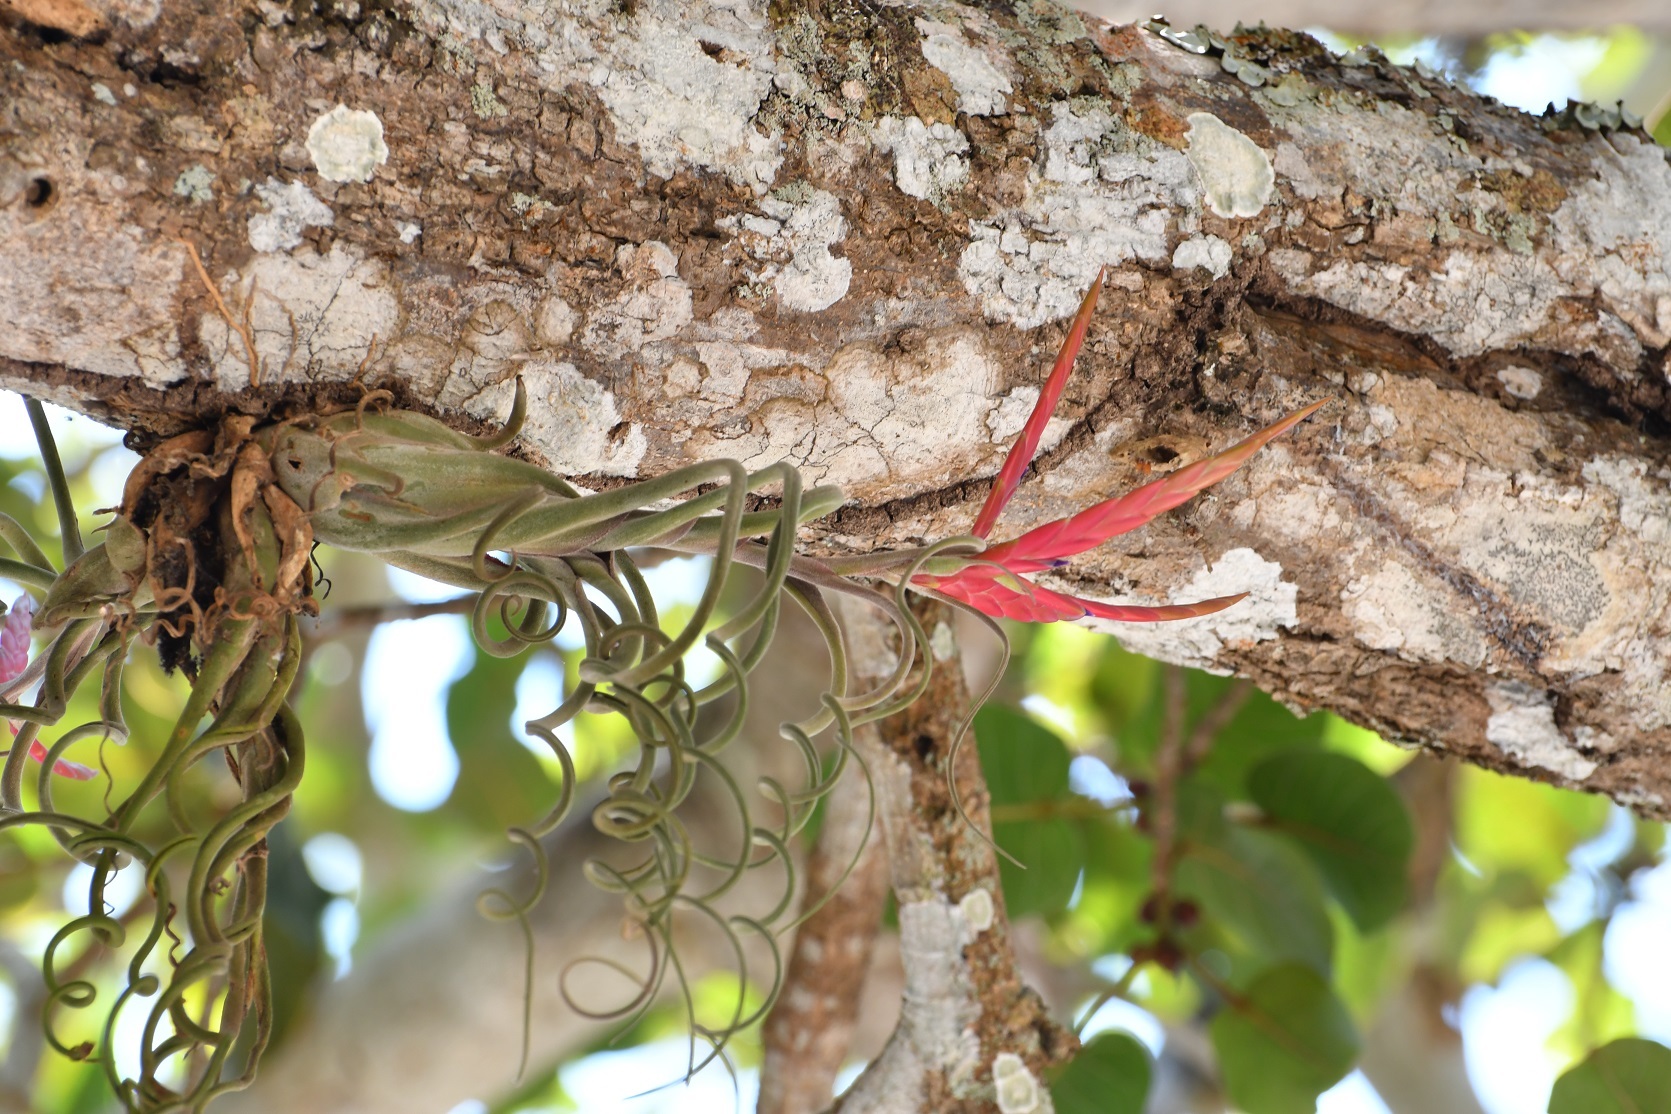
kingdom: Plantae
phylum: Tracheophyta
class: Liliopsida
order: Poales
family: Bromeliaceae
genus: Tillandsia
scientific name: Tillandsia caput-medusae
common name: Octopus plant
